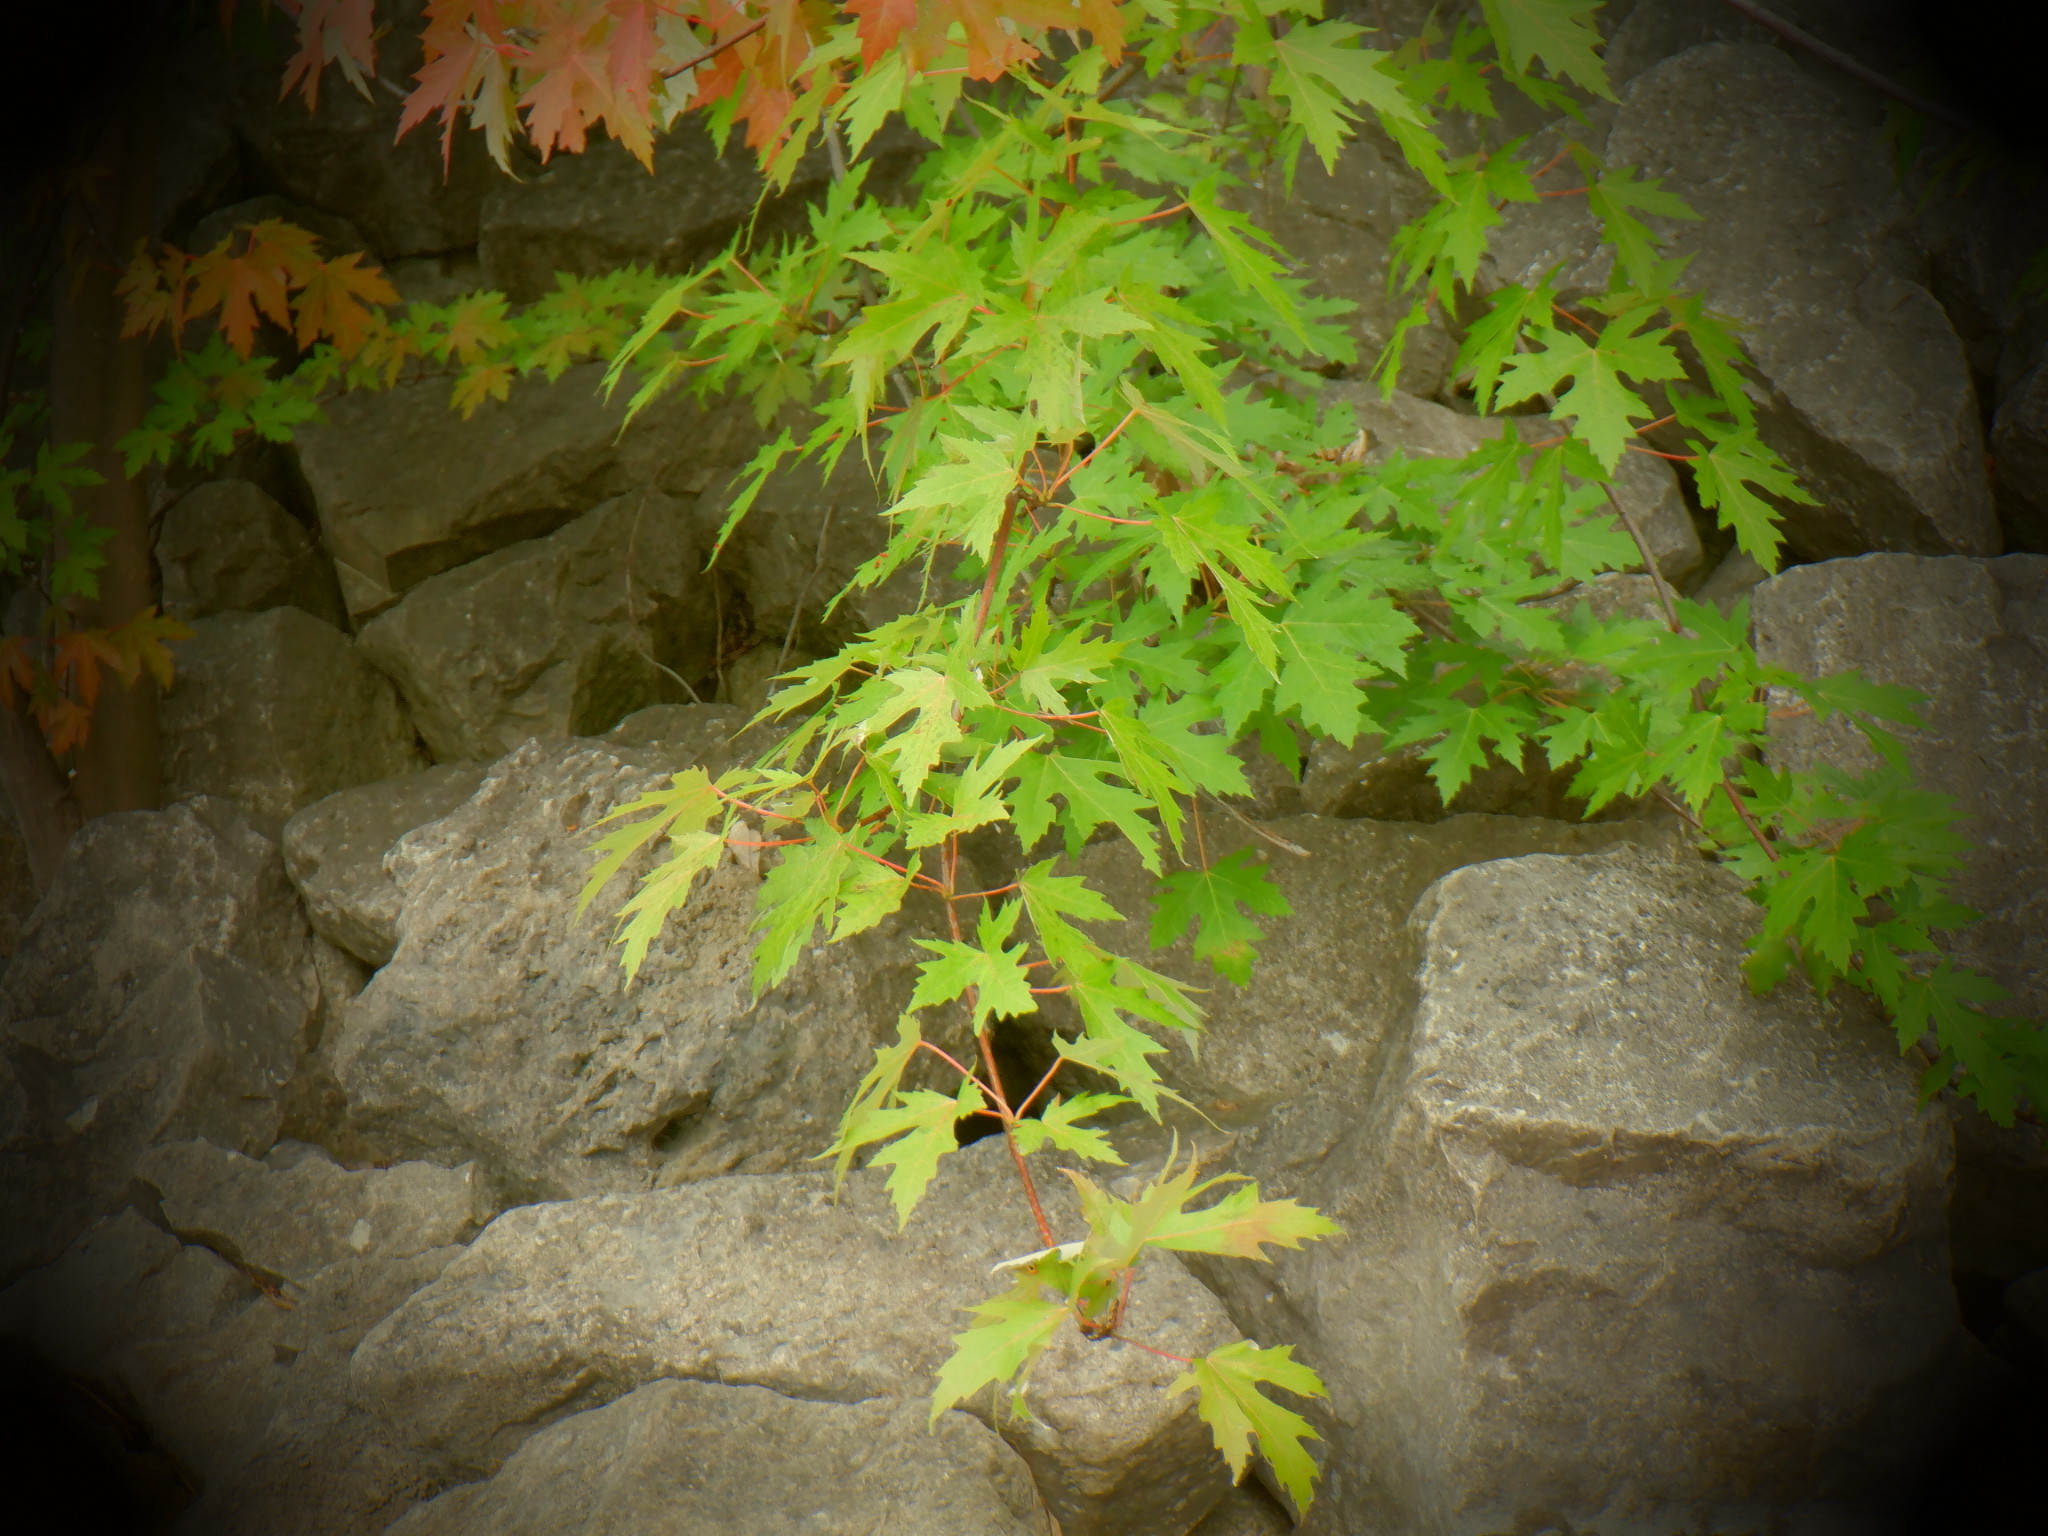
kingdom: Plantae
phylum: Tracheophyta
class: Magnoliopsida
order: Sapindales
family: Sapindaceae
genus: Acer
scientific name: Acer saccharinum
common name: Silver maple
